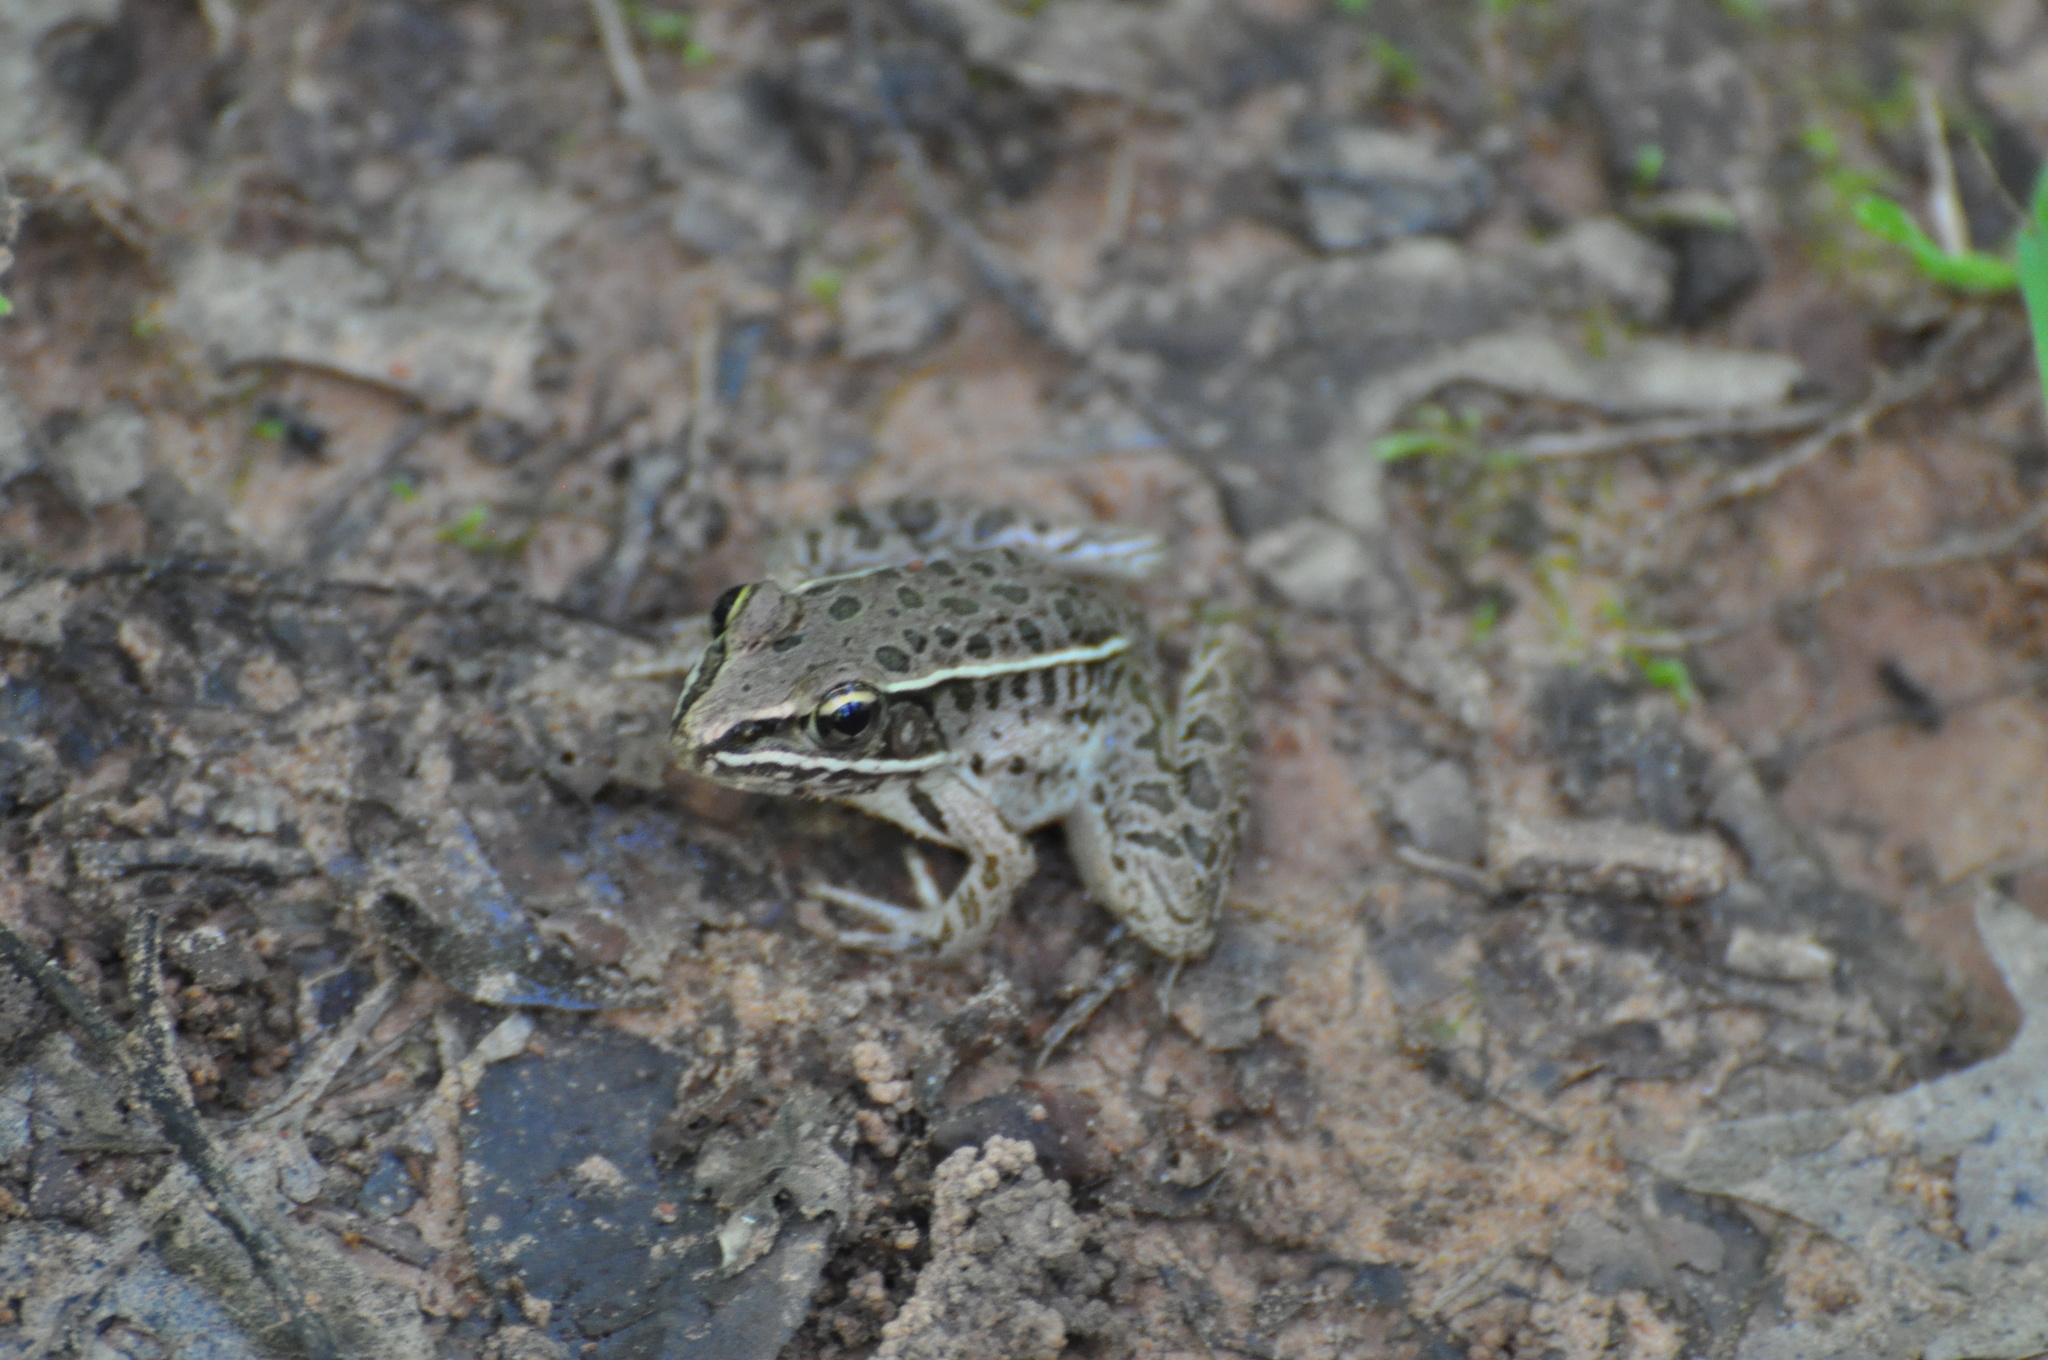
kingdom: Animalia
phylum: Chordata
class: Amphibia
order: Anura
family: Ranidae
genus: Lithobates
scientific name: Lithobates sphenocephalus
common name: Southern leopard frog
